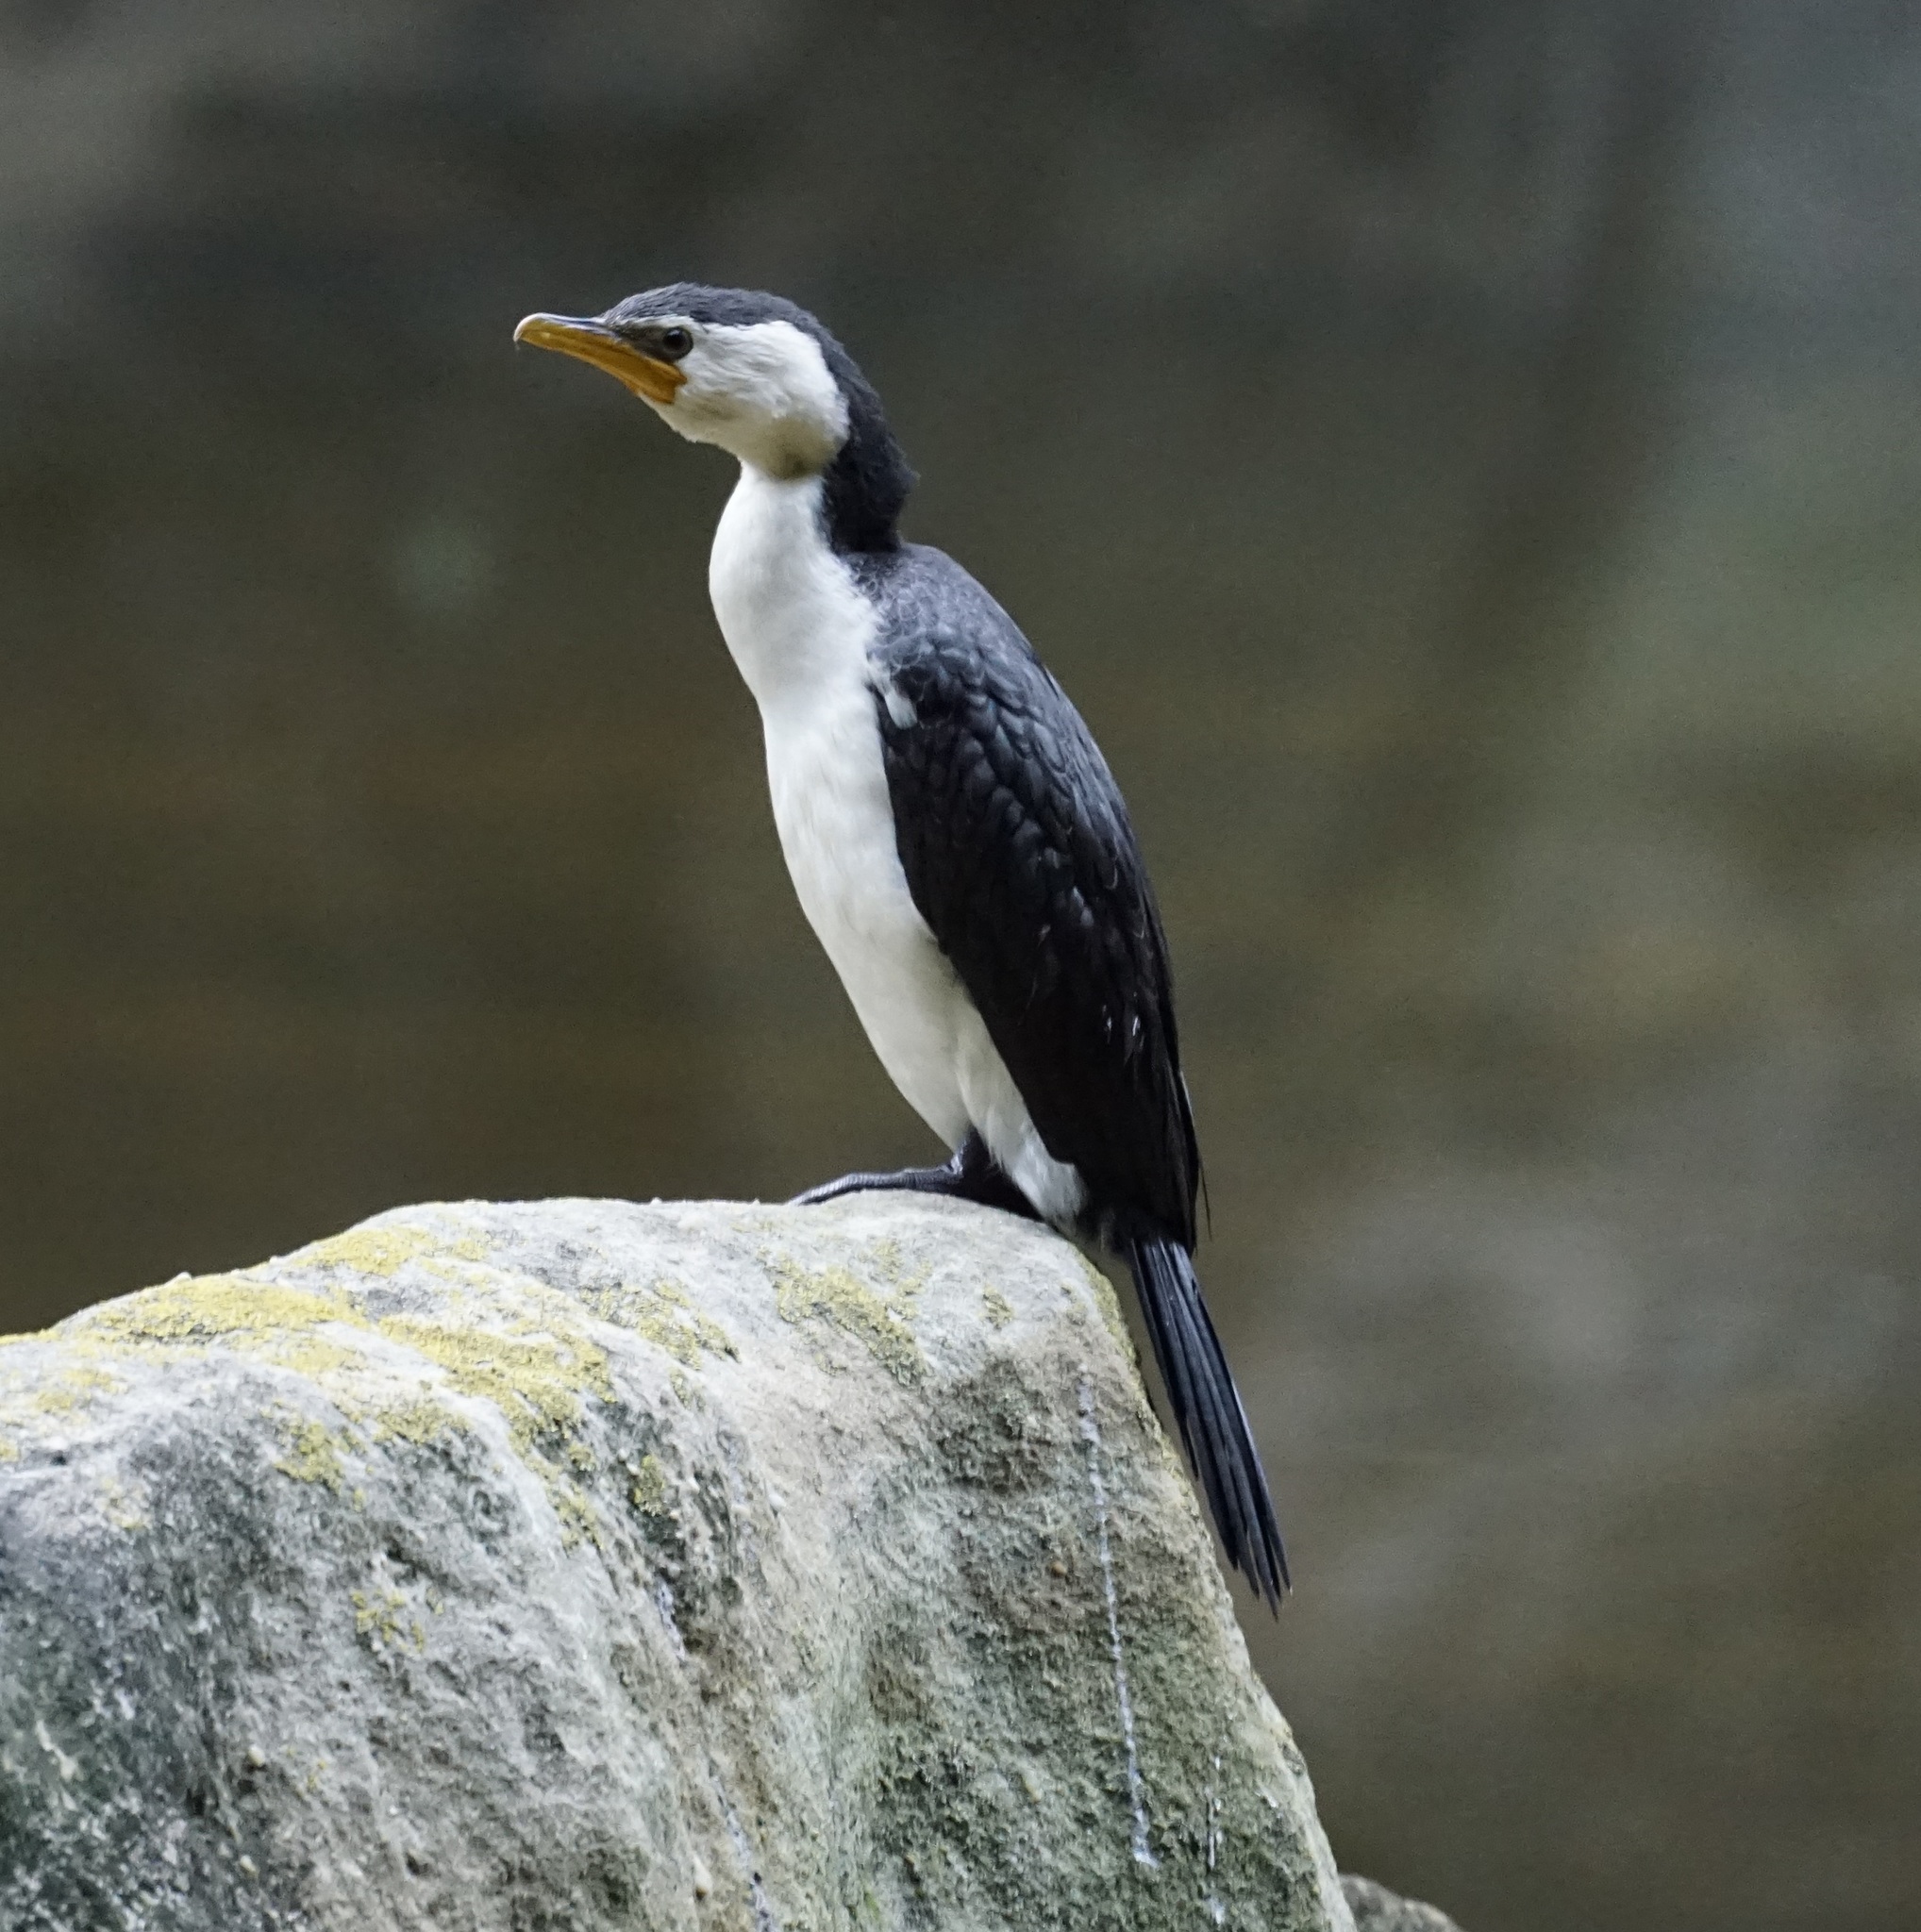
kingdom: Animalia
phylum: Chordata
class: Aves
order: Suliformes
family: Phalacrocoracidae
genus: Microcarbo
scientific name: Microcarbo melanoleucos
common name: Little pied cormorant
